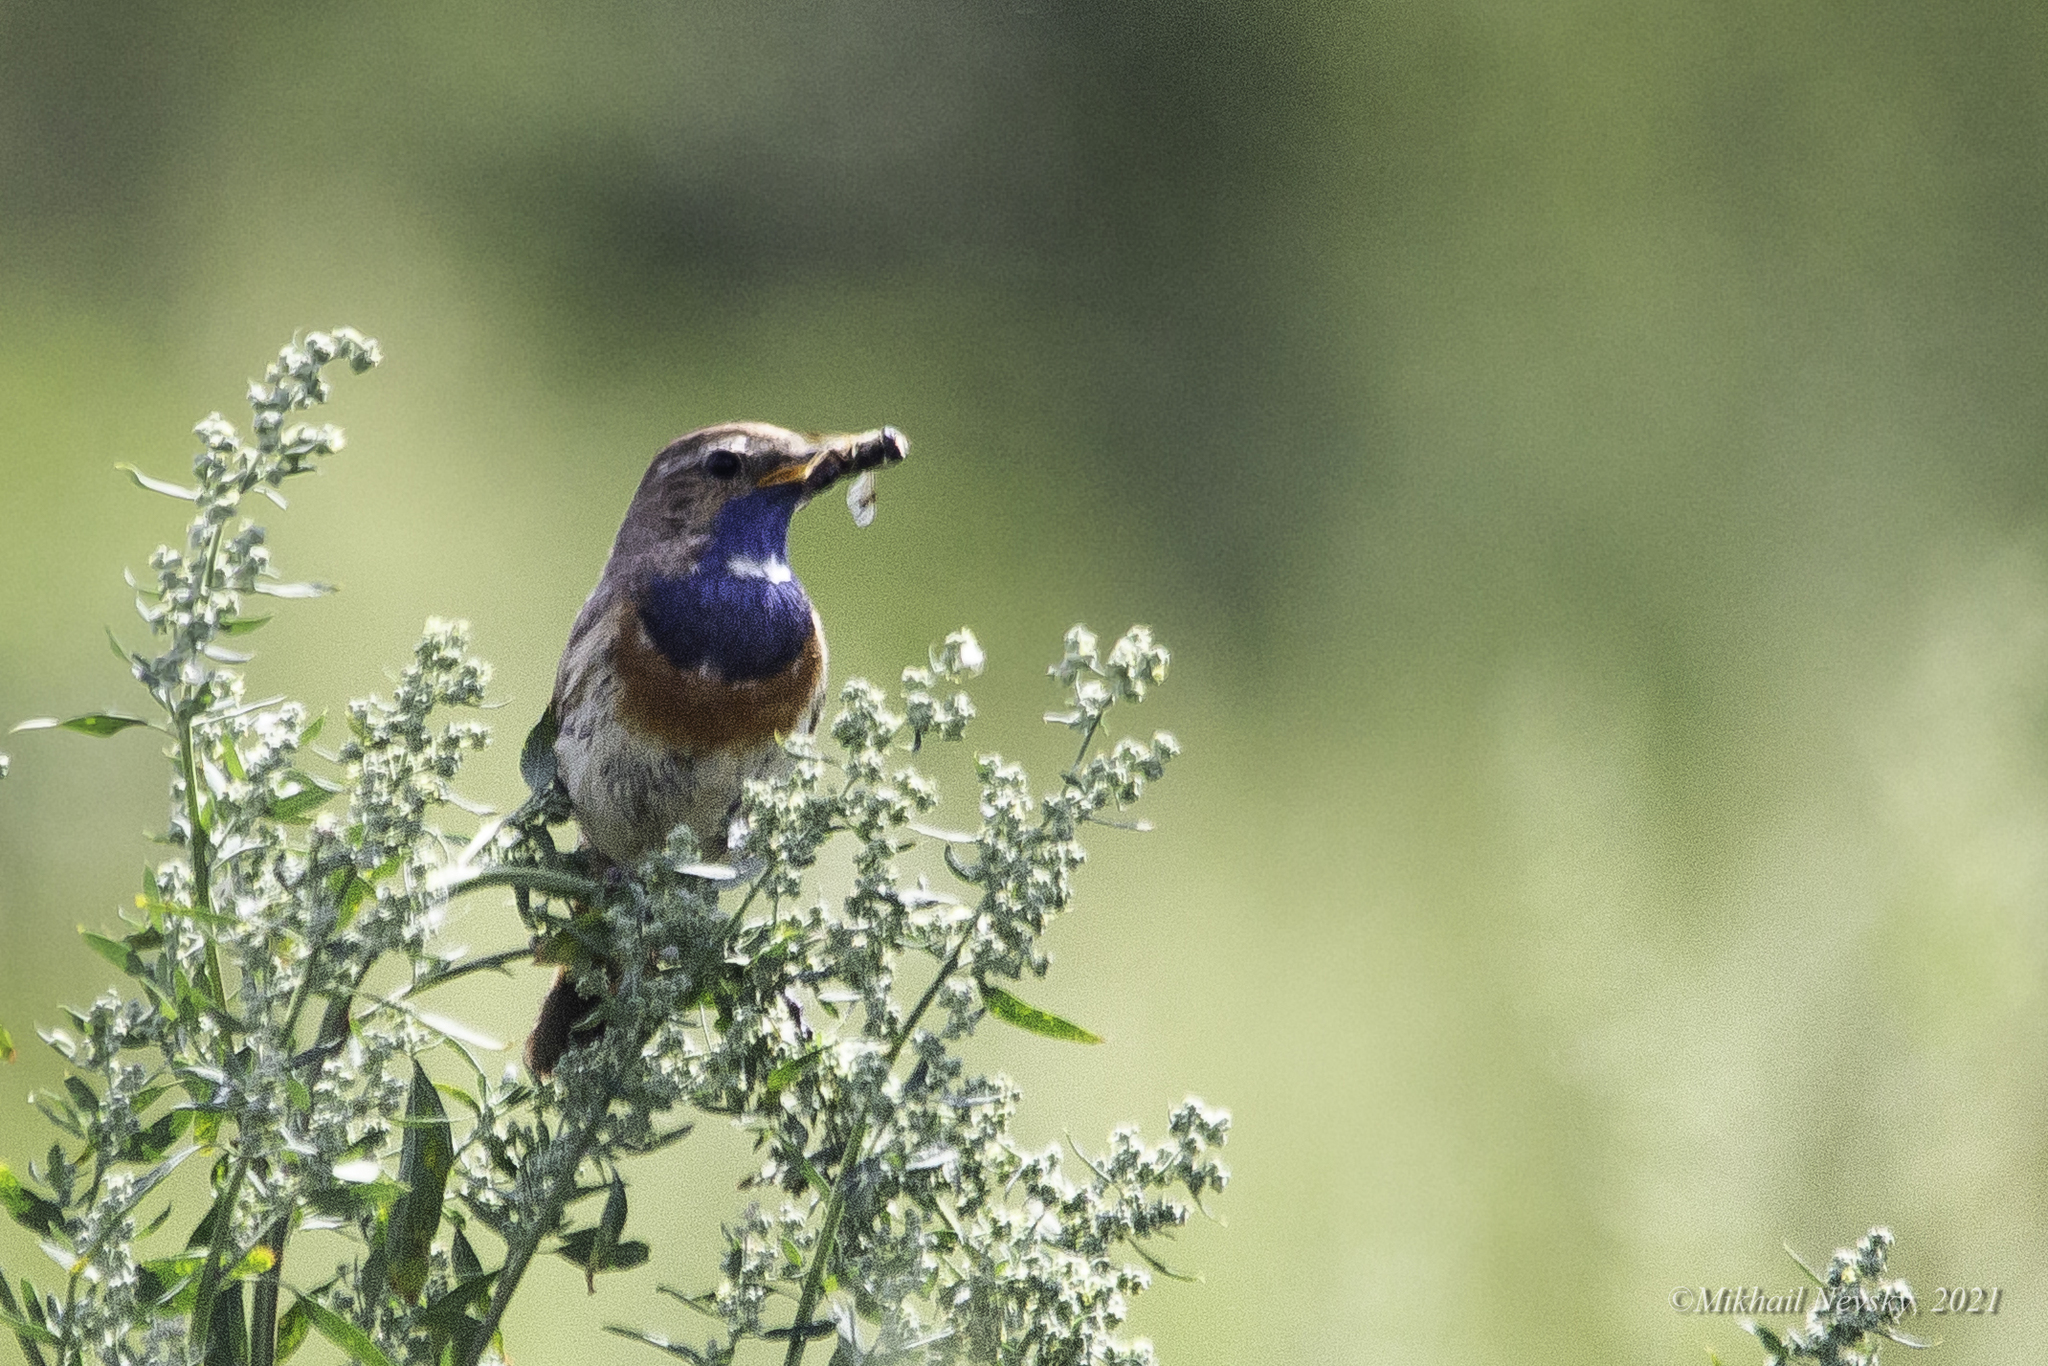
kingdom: Animalia
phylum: Chordata
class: Aves
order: Passeriformes
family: Muscicapidae
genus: Luscinia
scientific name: Luscinia svecica
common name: Bluethroat
